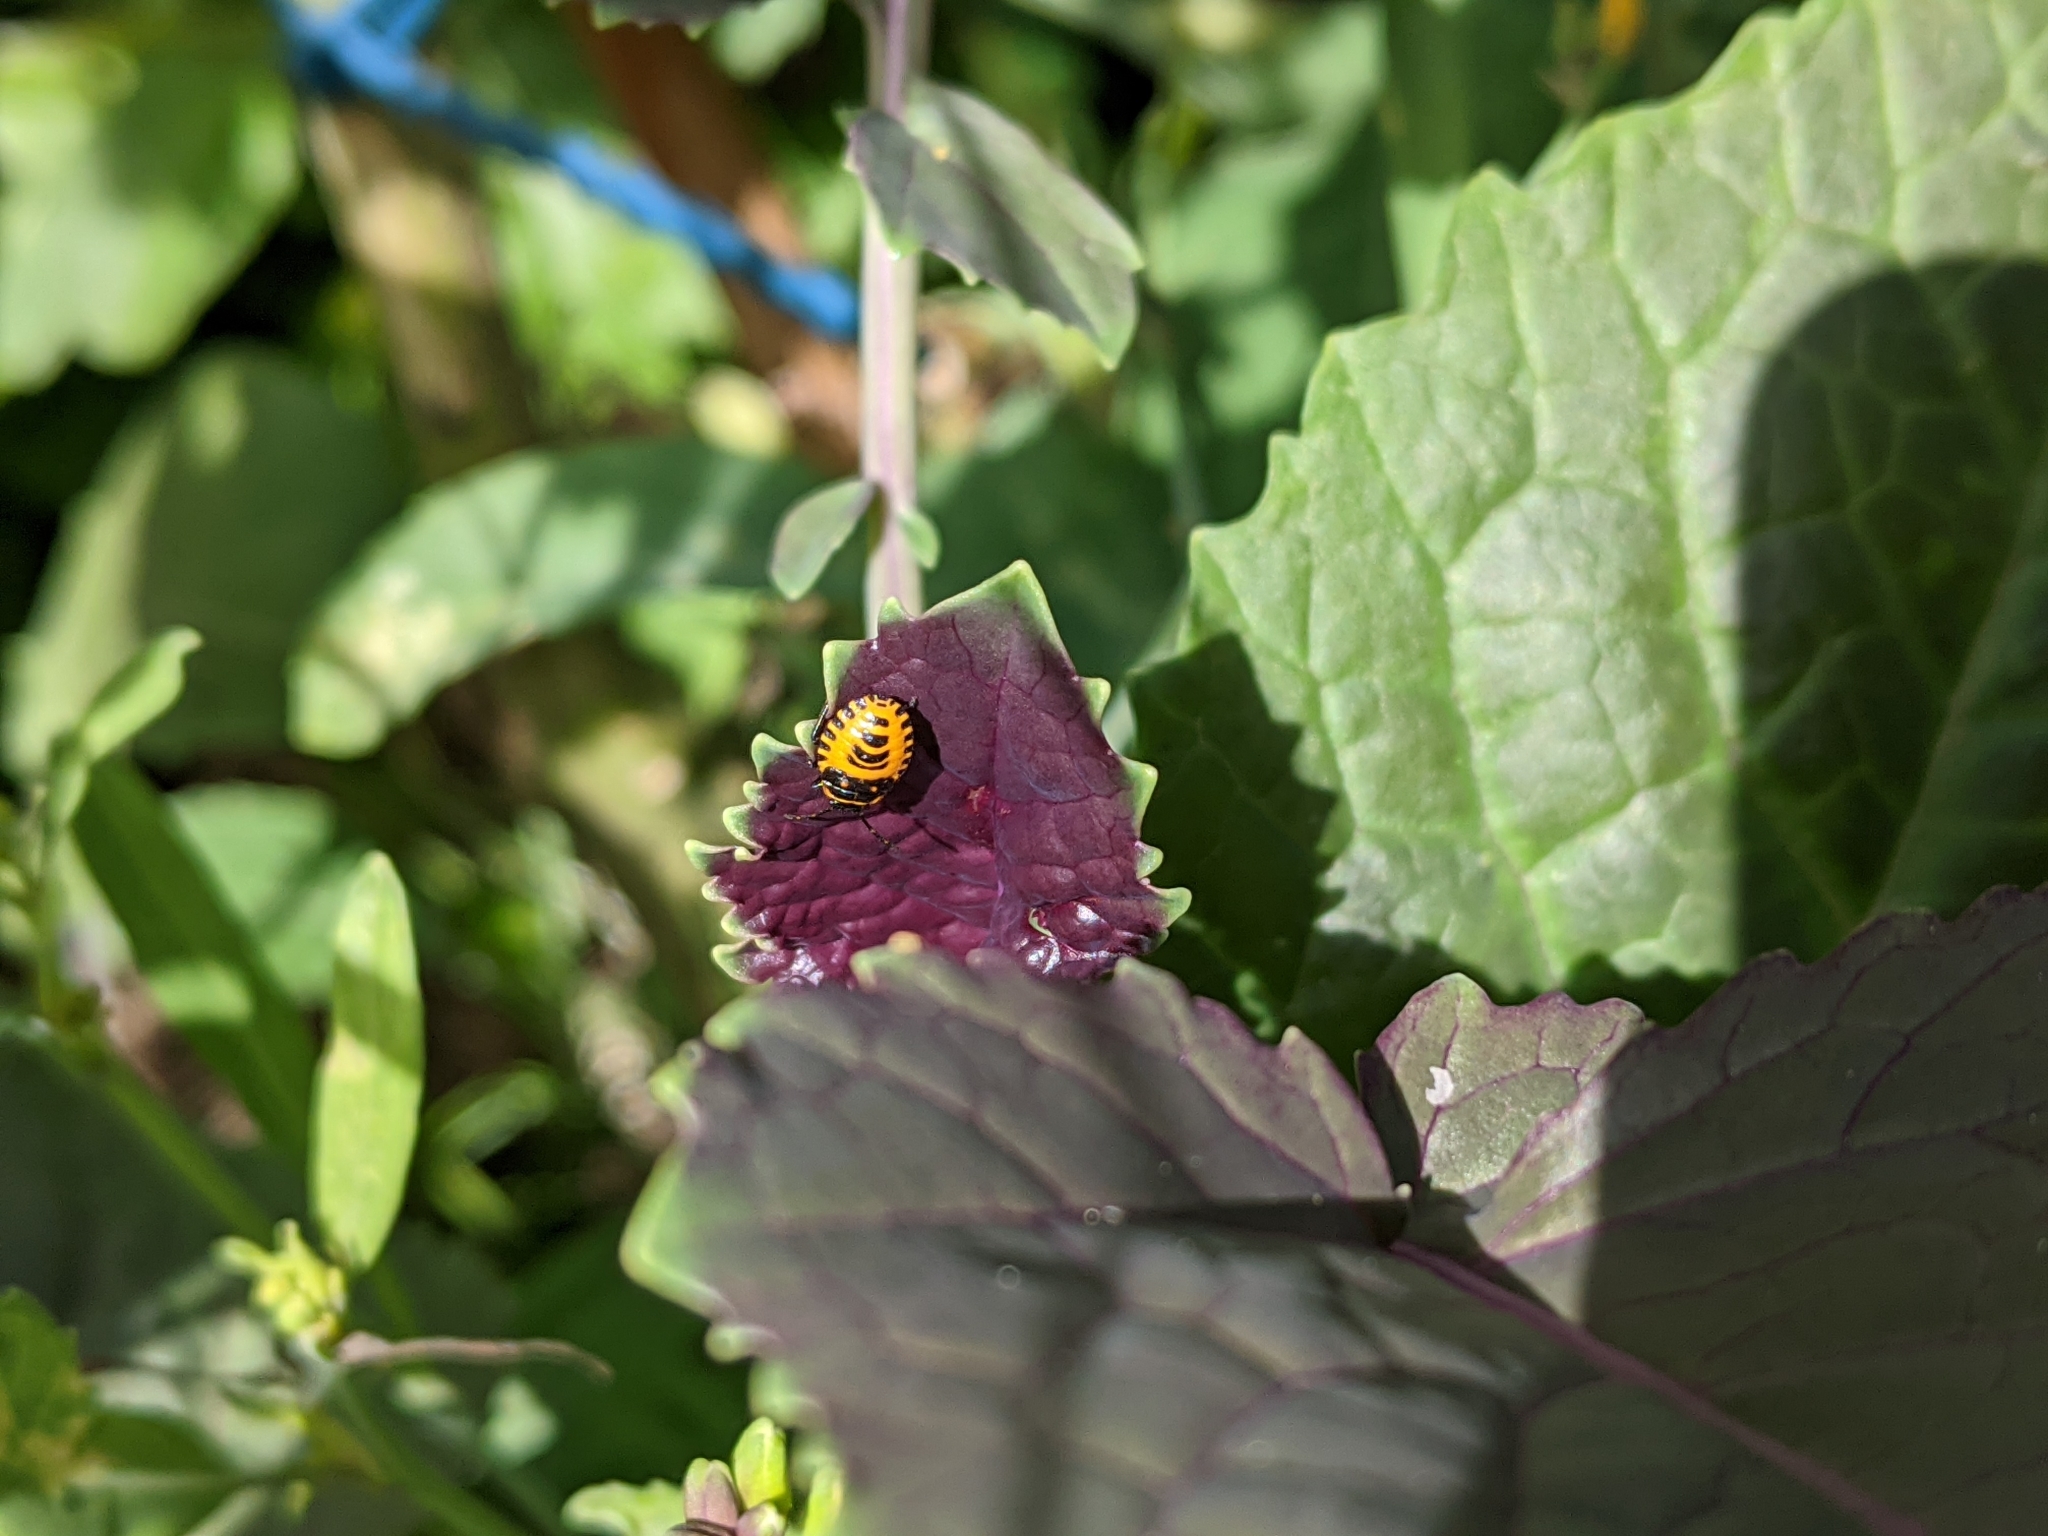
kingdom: Animalia
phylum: Arthropoda
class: Insecta
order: Hemiptera
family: Pentatomidae
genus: Eurydema
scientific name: Eurydema ventralis
